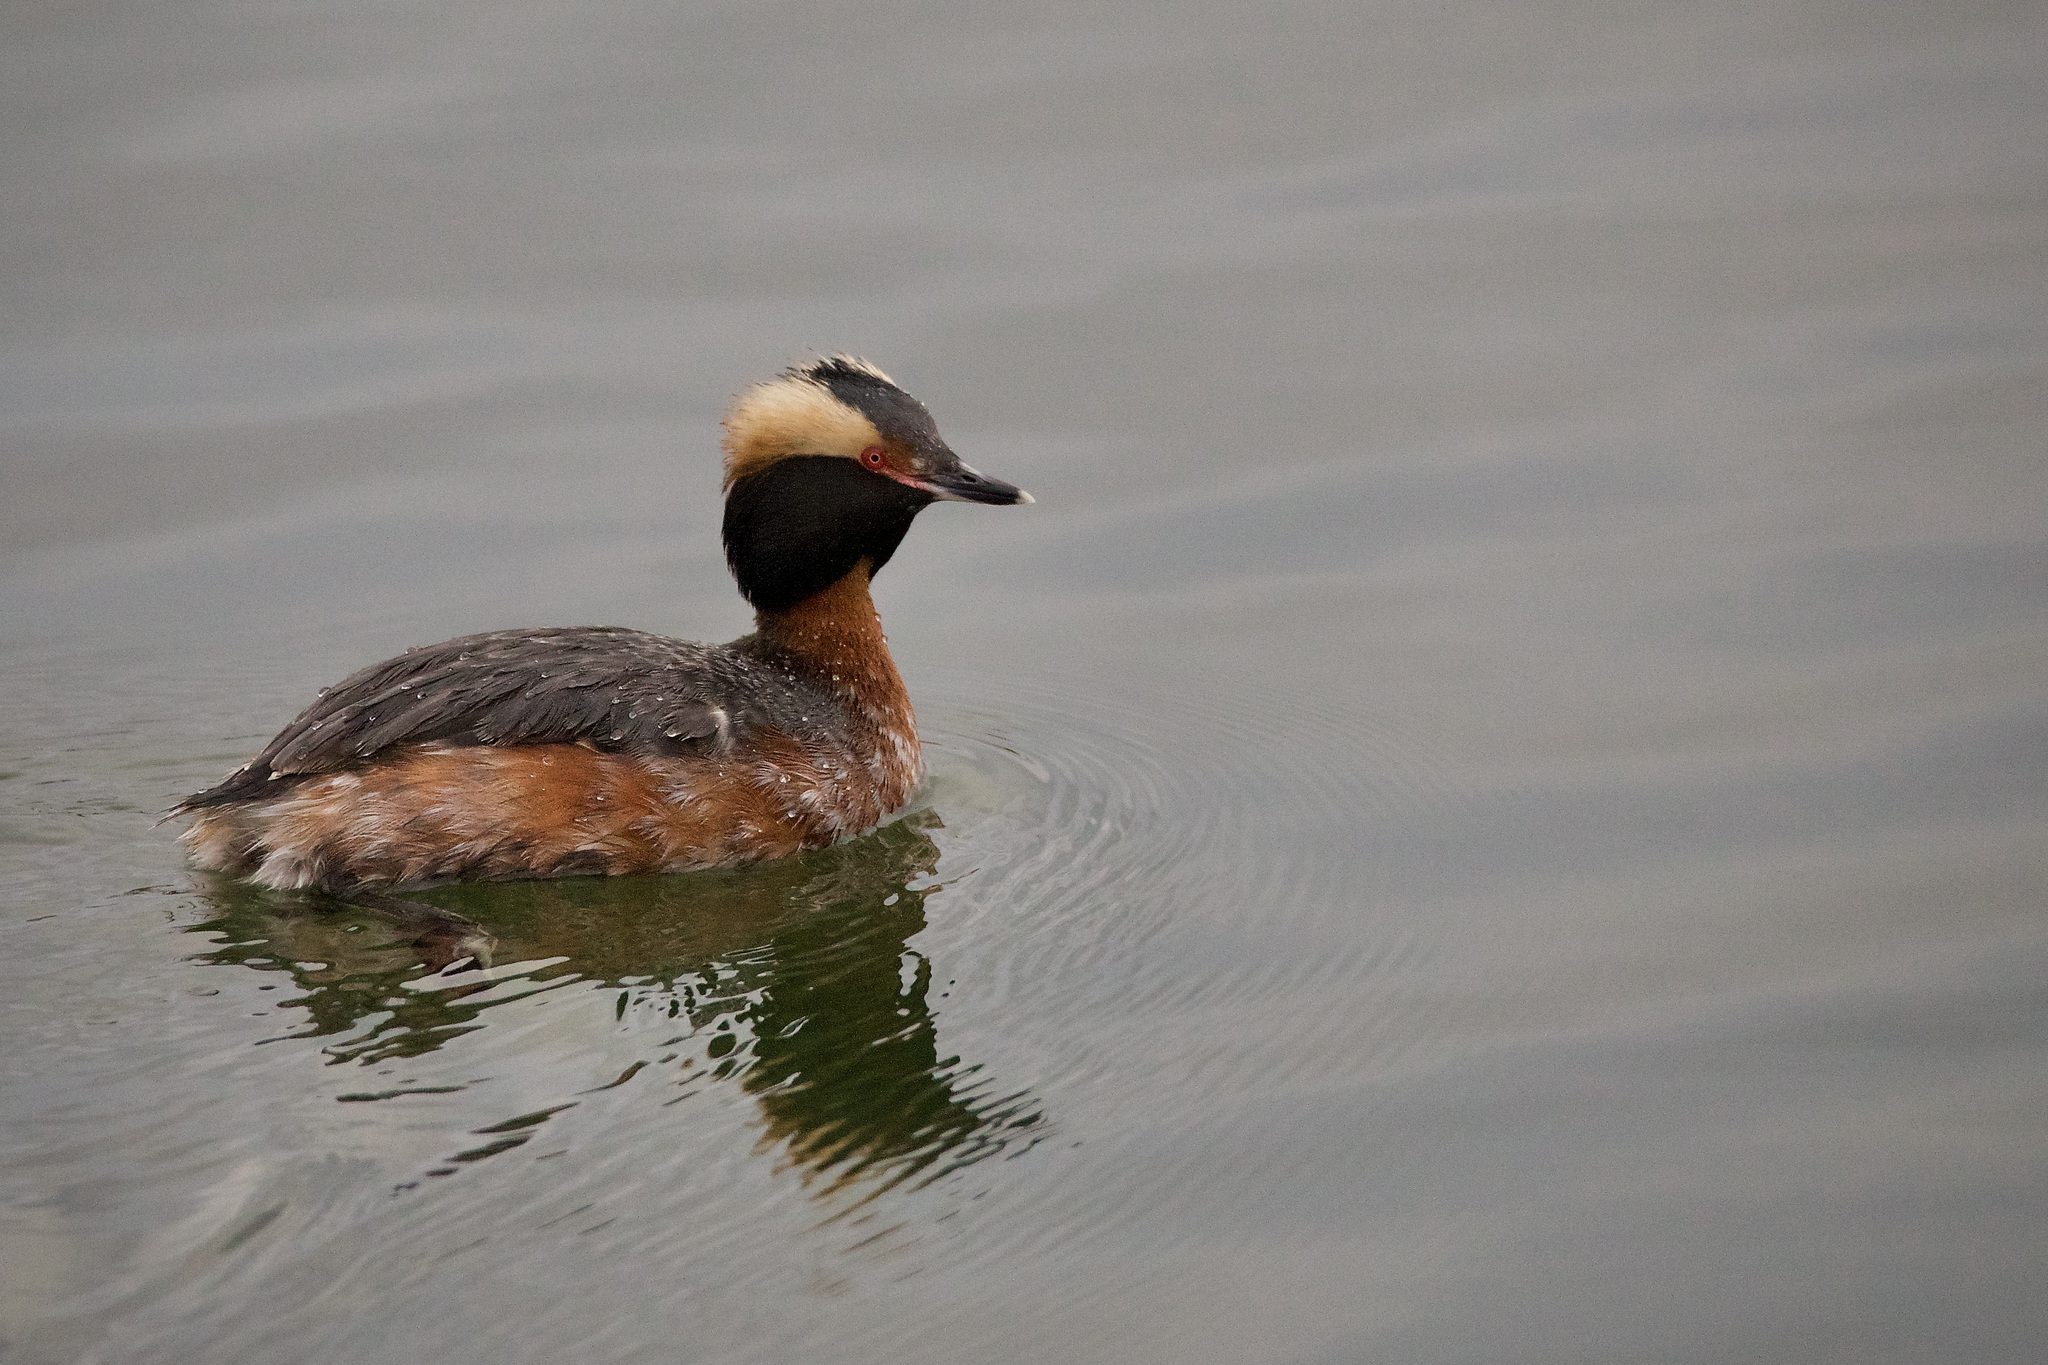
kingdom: Animalia
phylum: Chordata
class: Aves
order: Podicipediformes
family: Podicipedidae
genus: Podiceps
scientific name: Podiceps auritus
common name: Horned grebe
